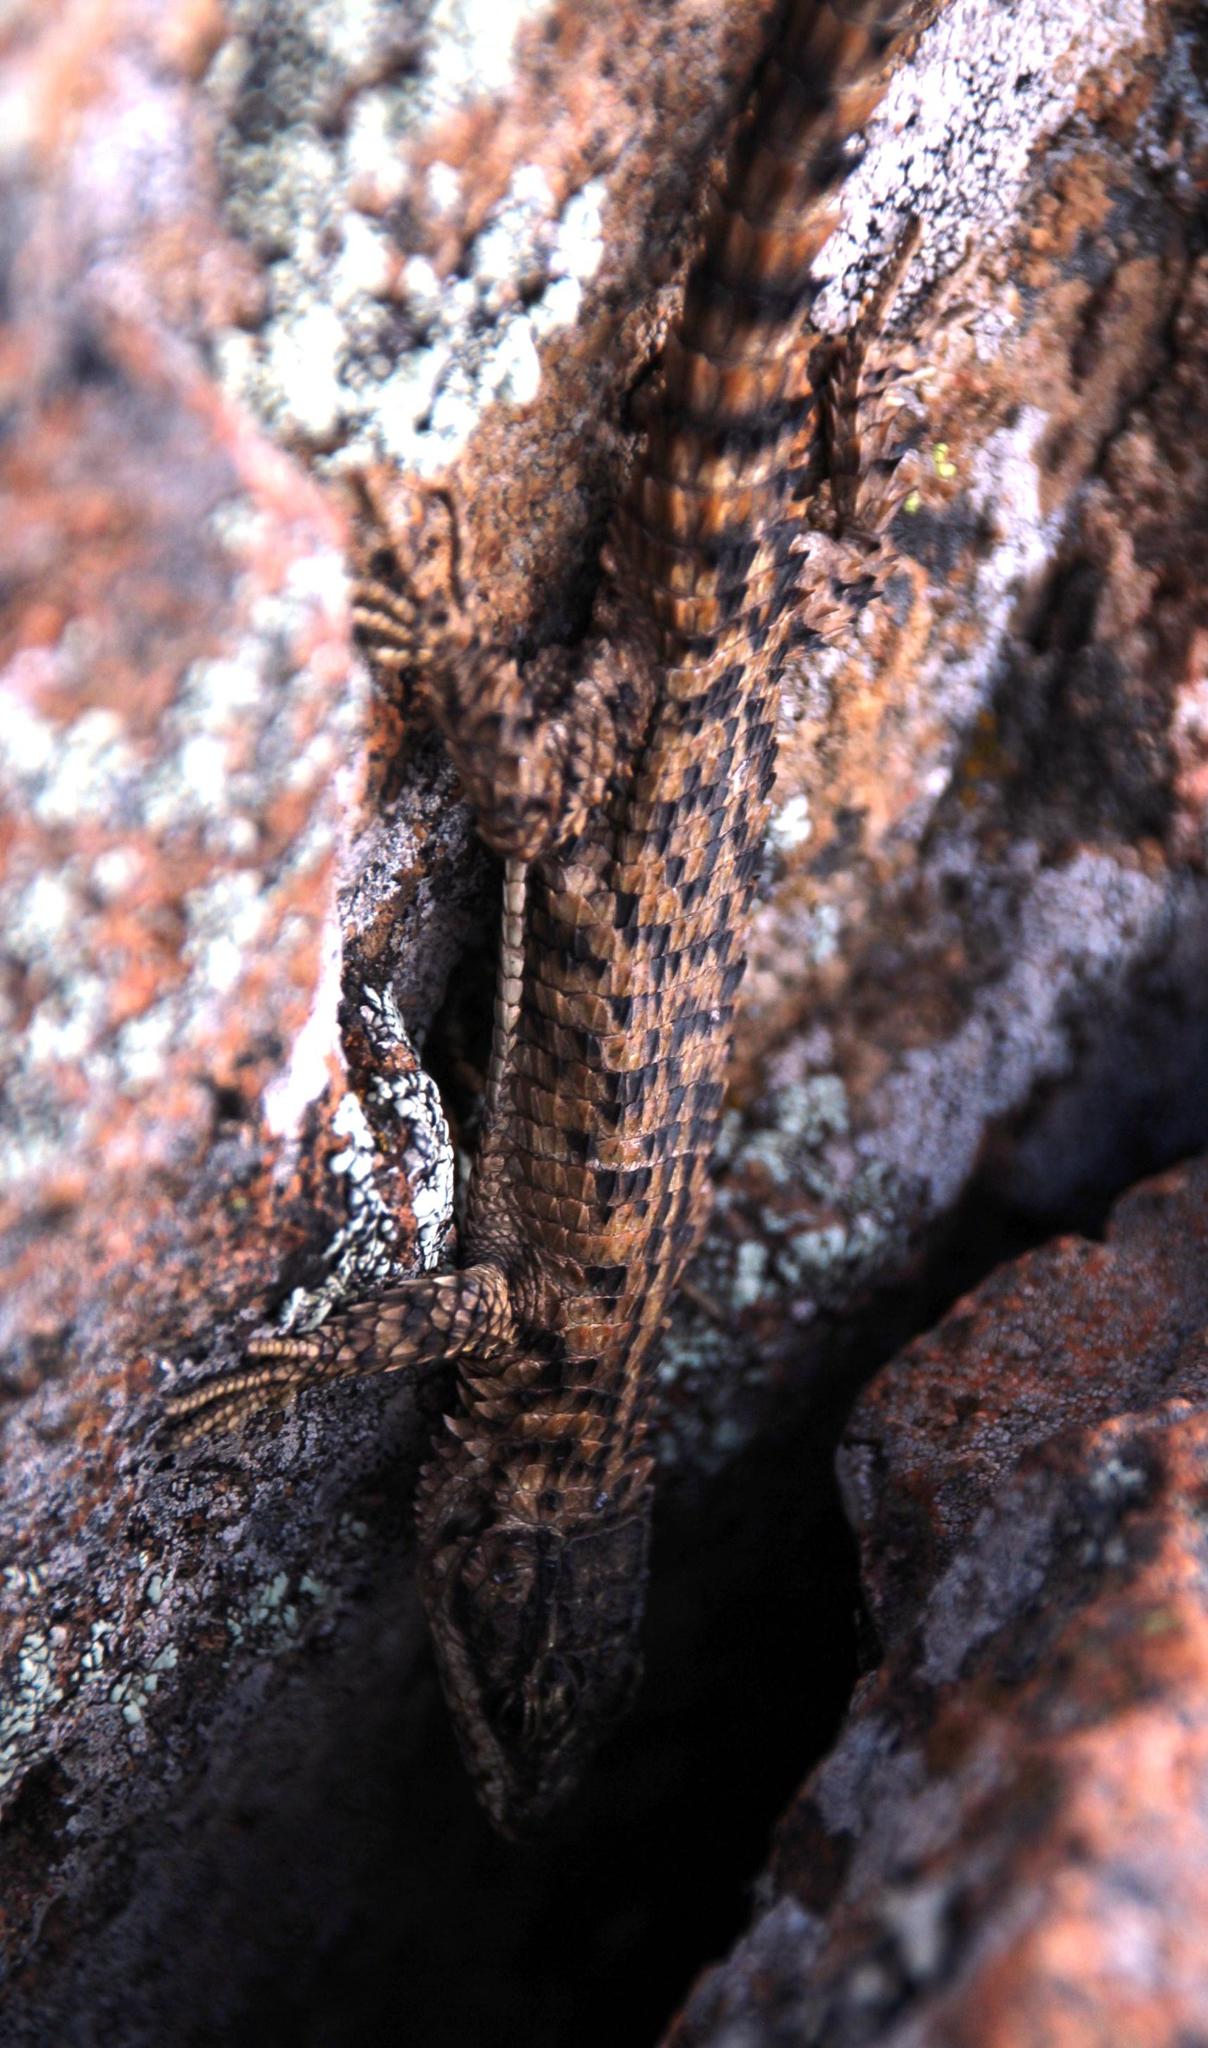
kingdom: Animalia
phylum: Chordata
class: Squamata
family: Cordylidae
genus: Cordylus
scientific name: Cordylus cordylus
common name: Cape girdled lizard
